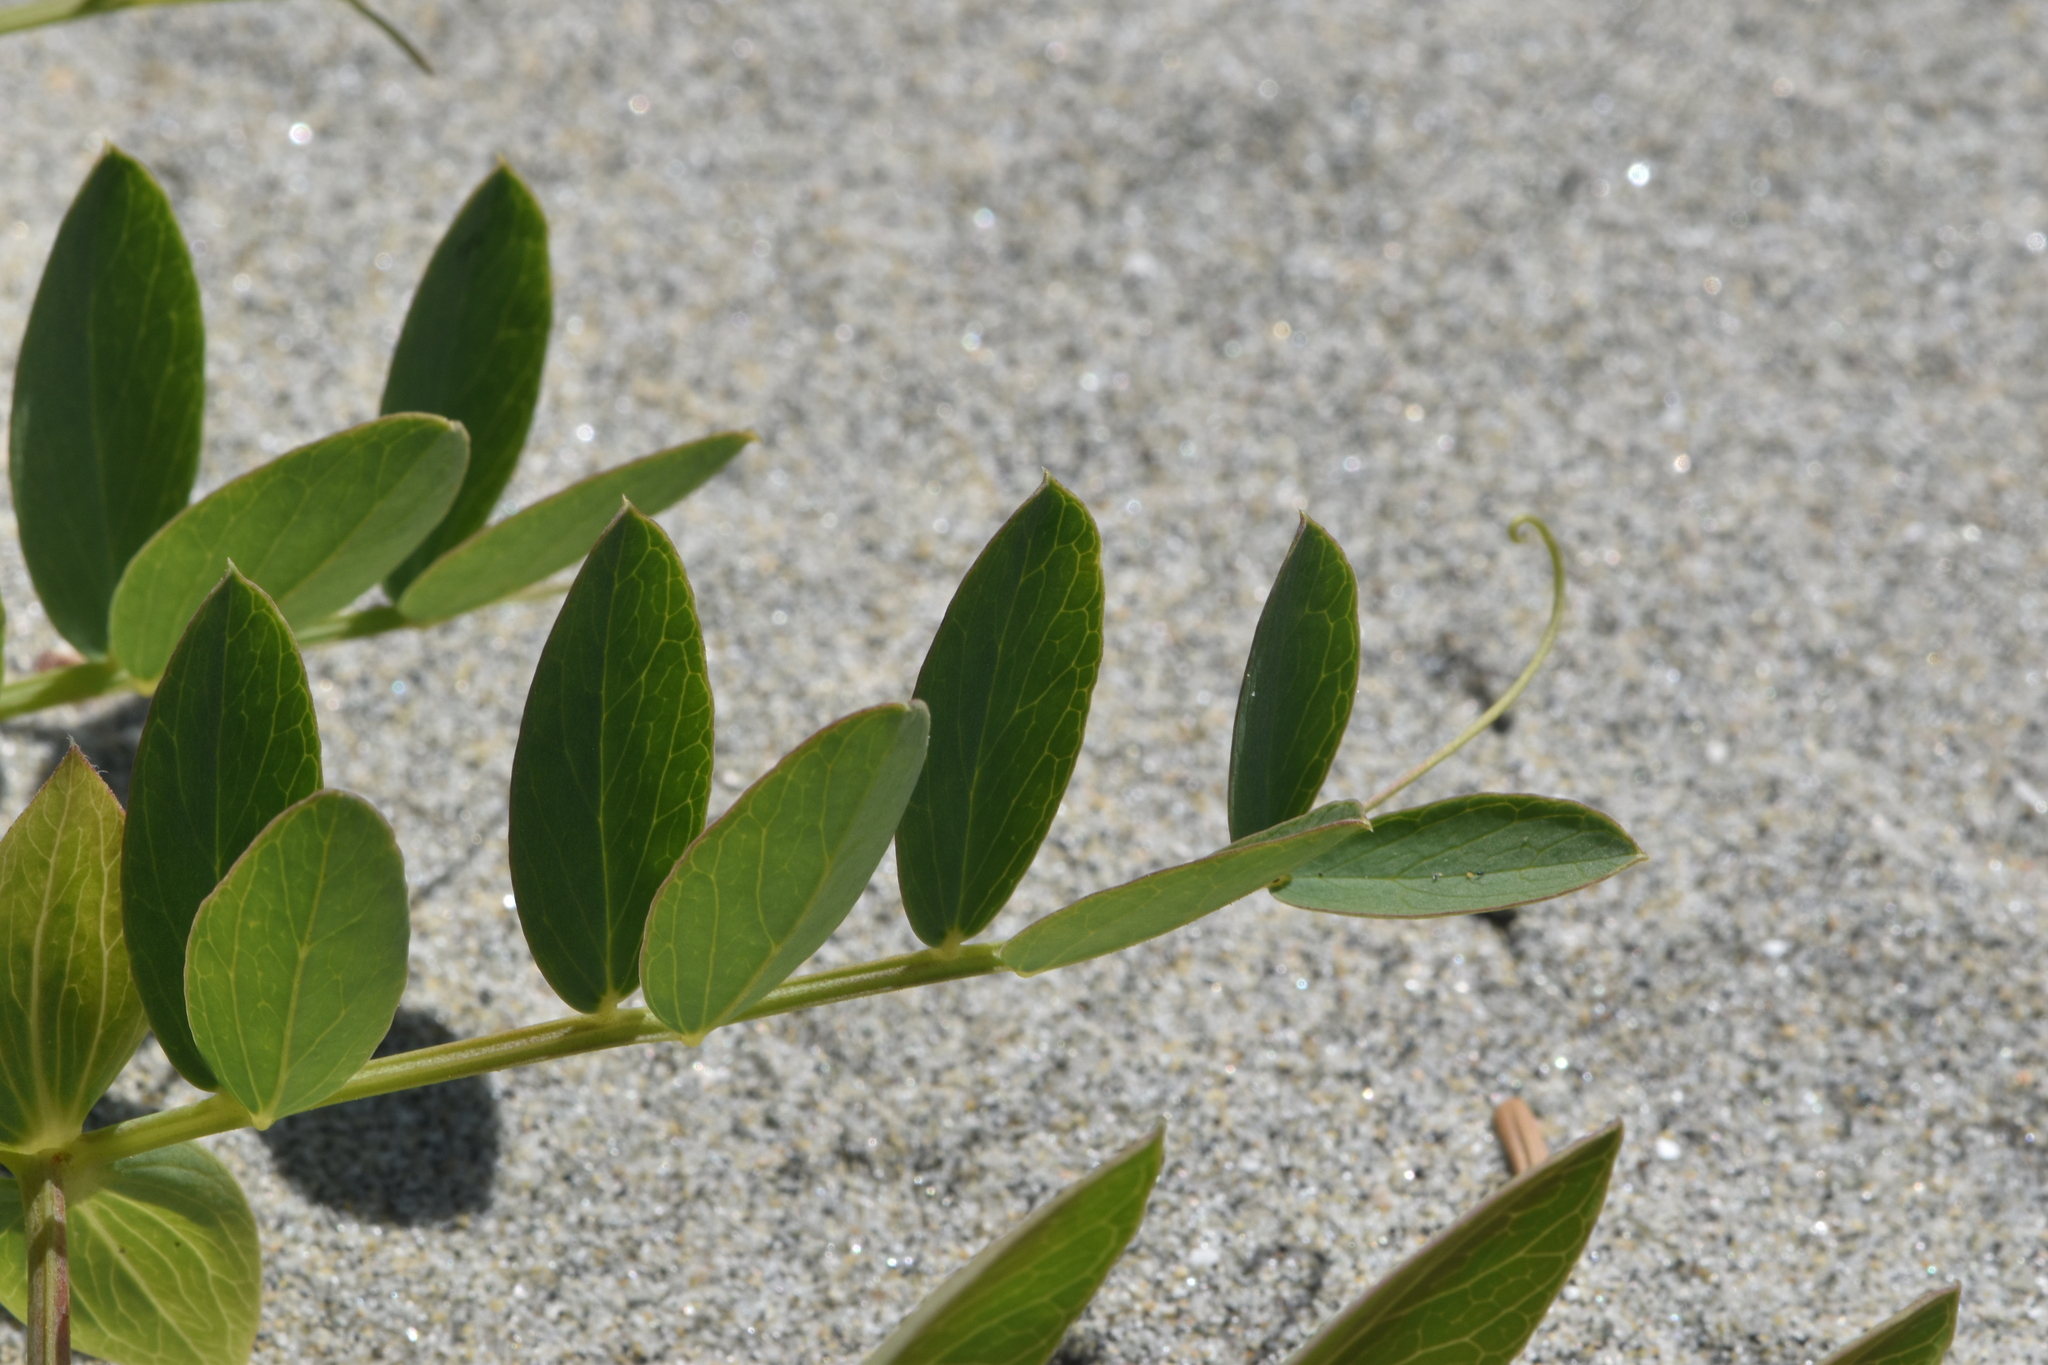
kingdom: Plantae
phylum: Tracheophyta
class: Magnoliopsida
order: Fabales
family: Fabaceae
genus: Lathyrus
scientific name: Lathyrus japonicus
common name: Sea pea
